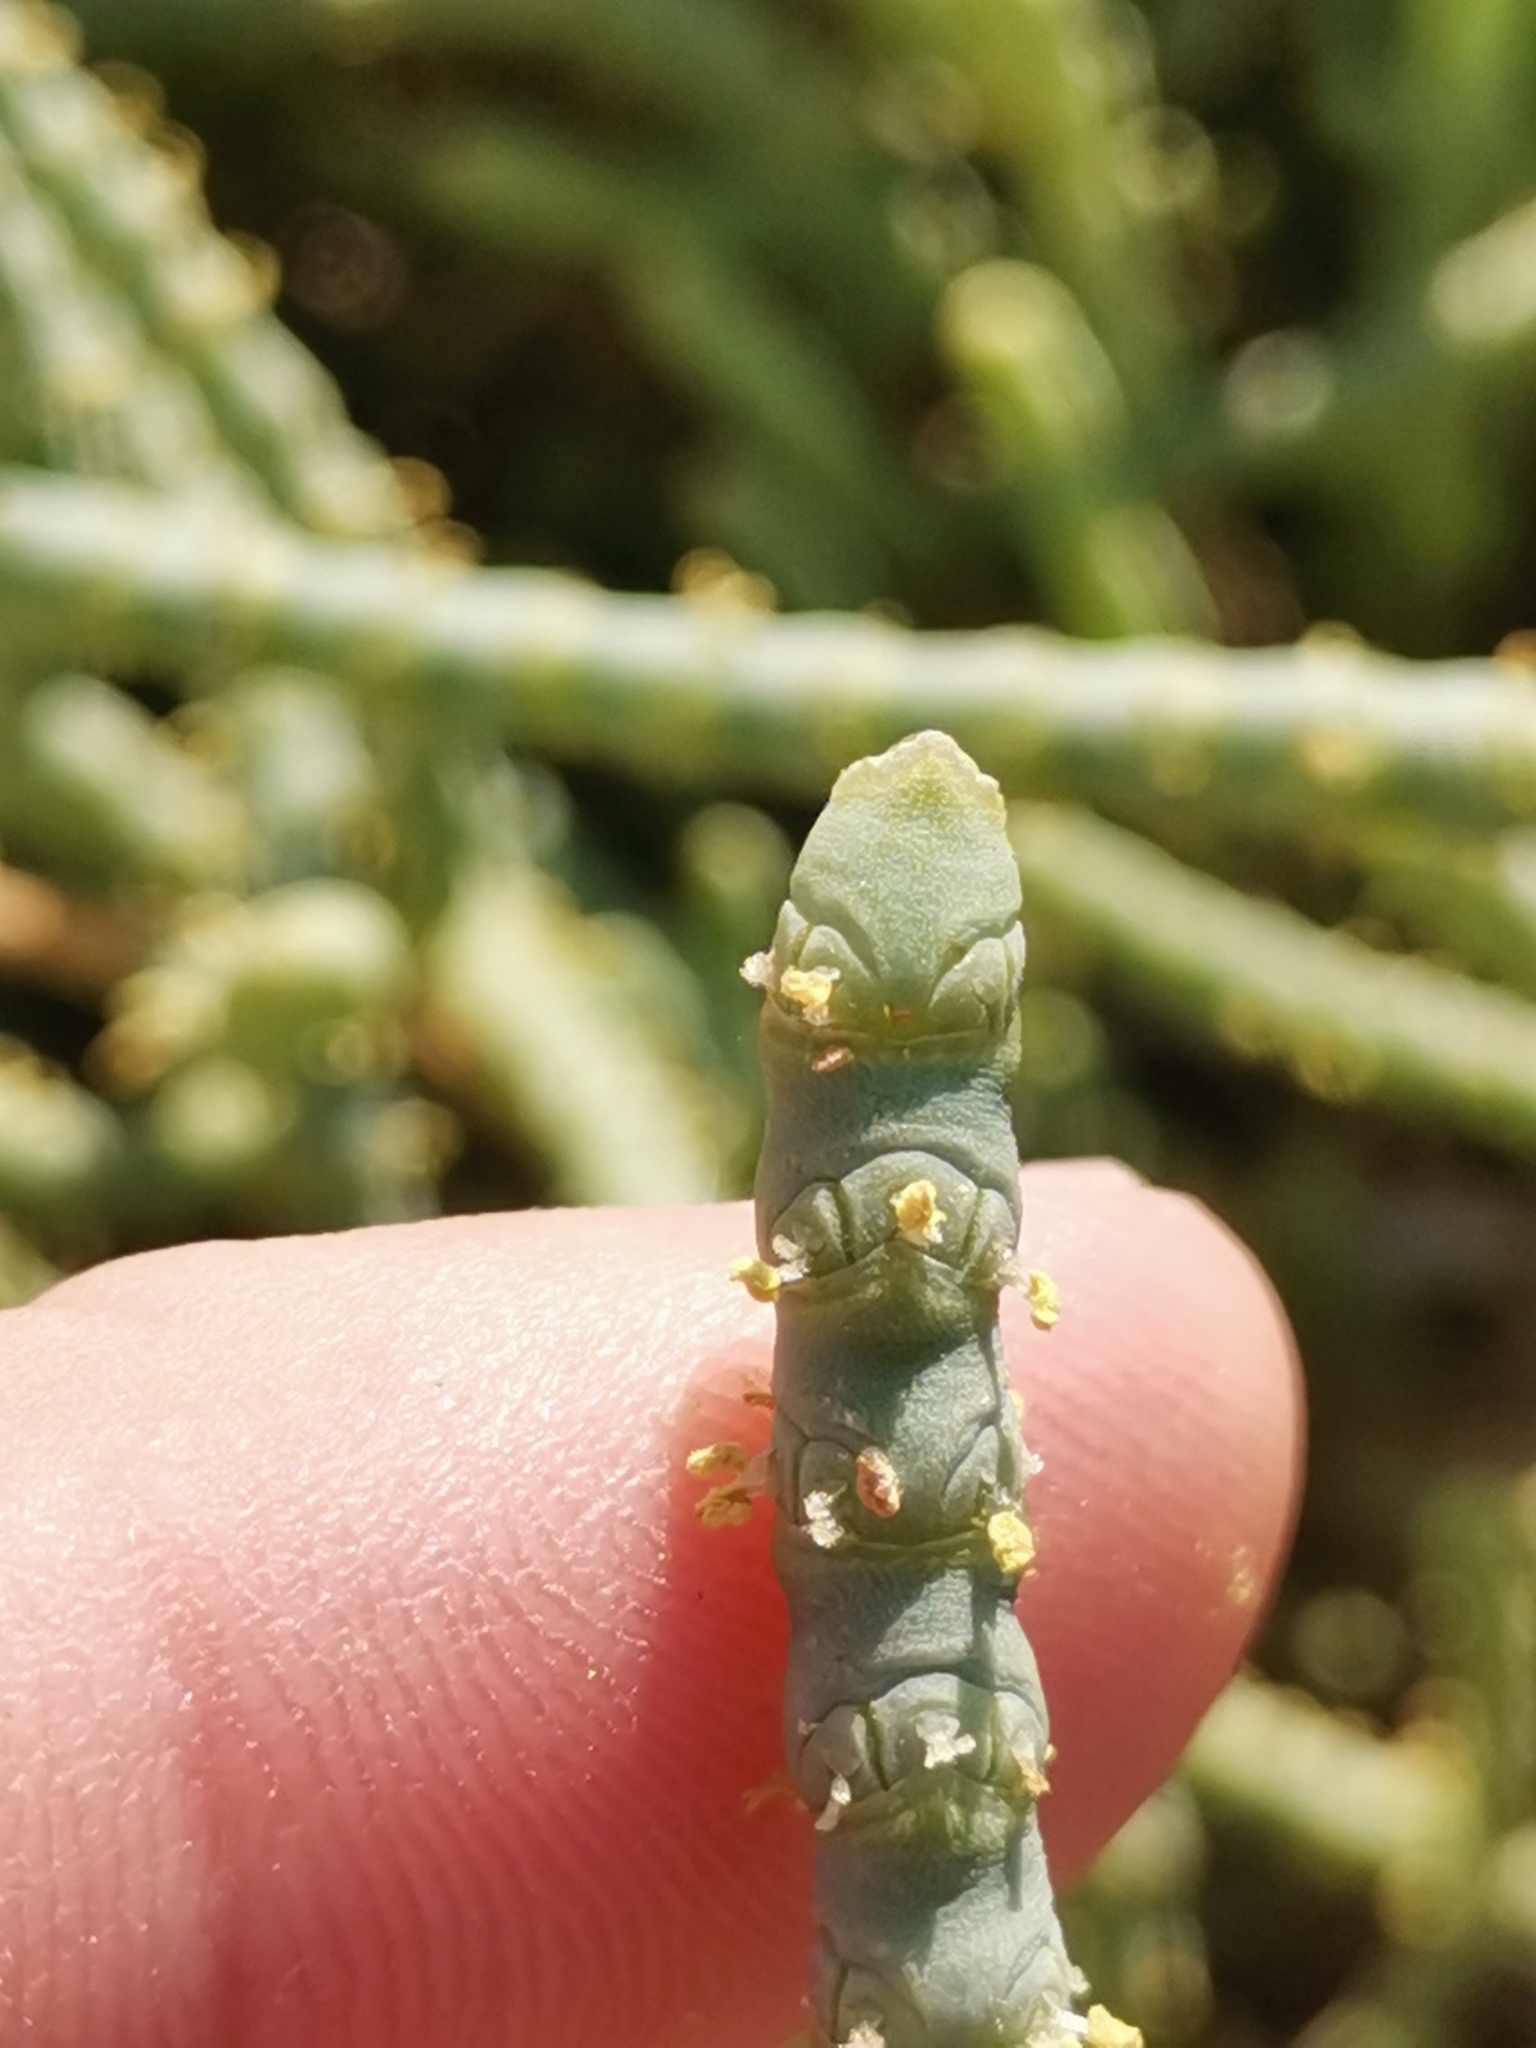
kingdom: Plantae
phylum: Tracheophyta
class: Magnoliopsida
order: Caryophyllales
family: Amaranthaceae
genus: Salicornia
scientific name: Salicornia fruticosa
